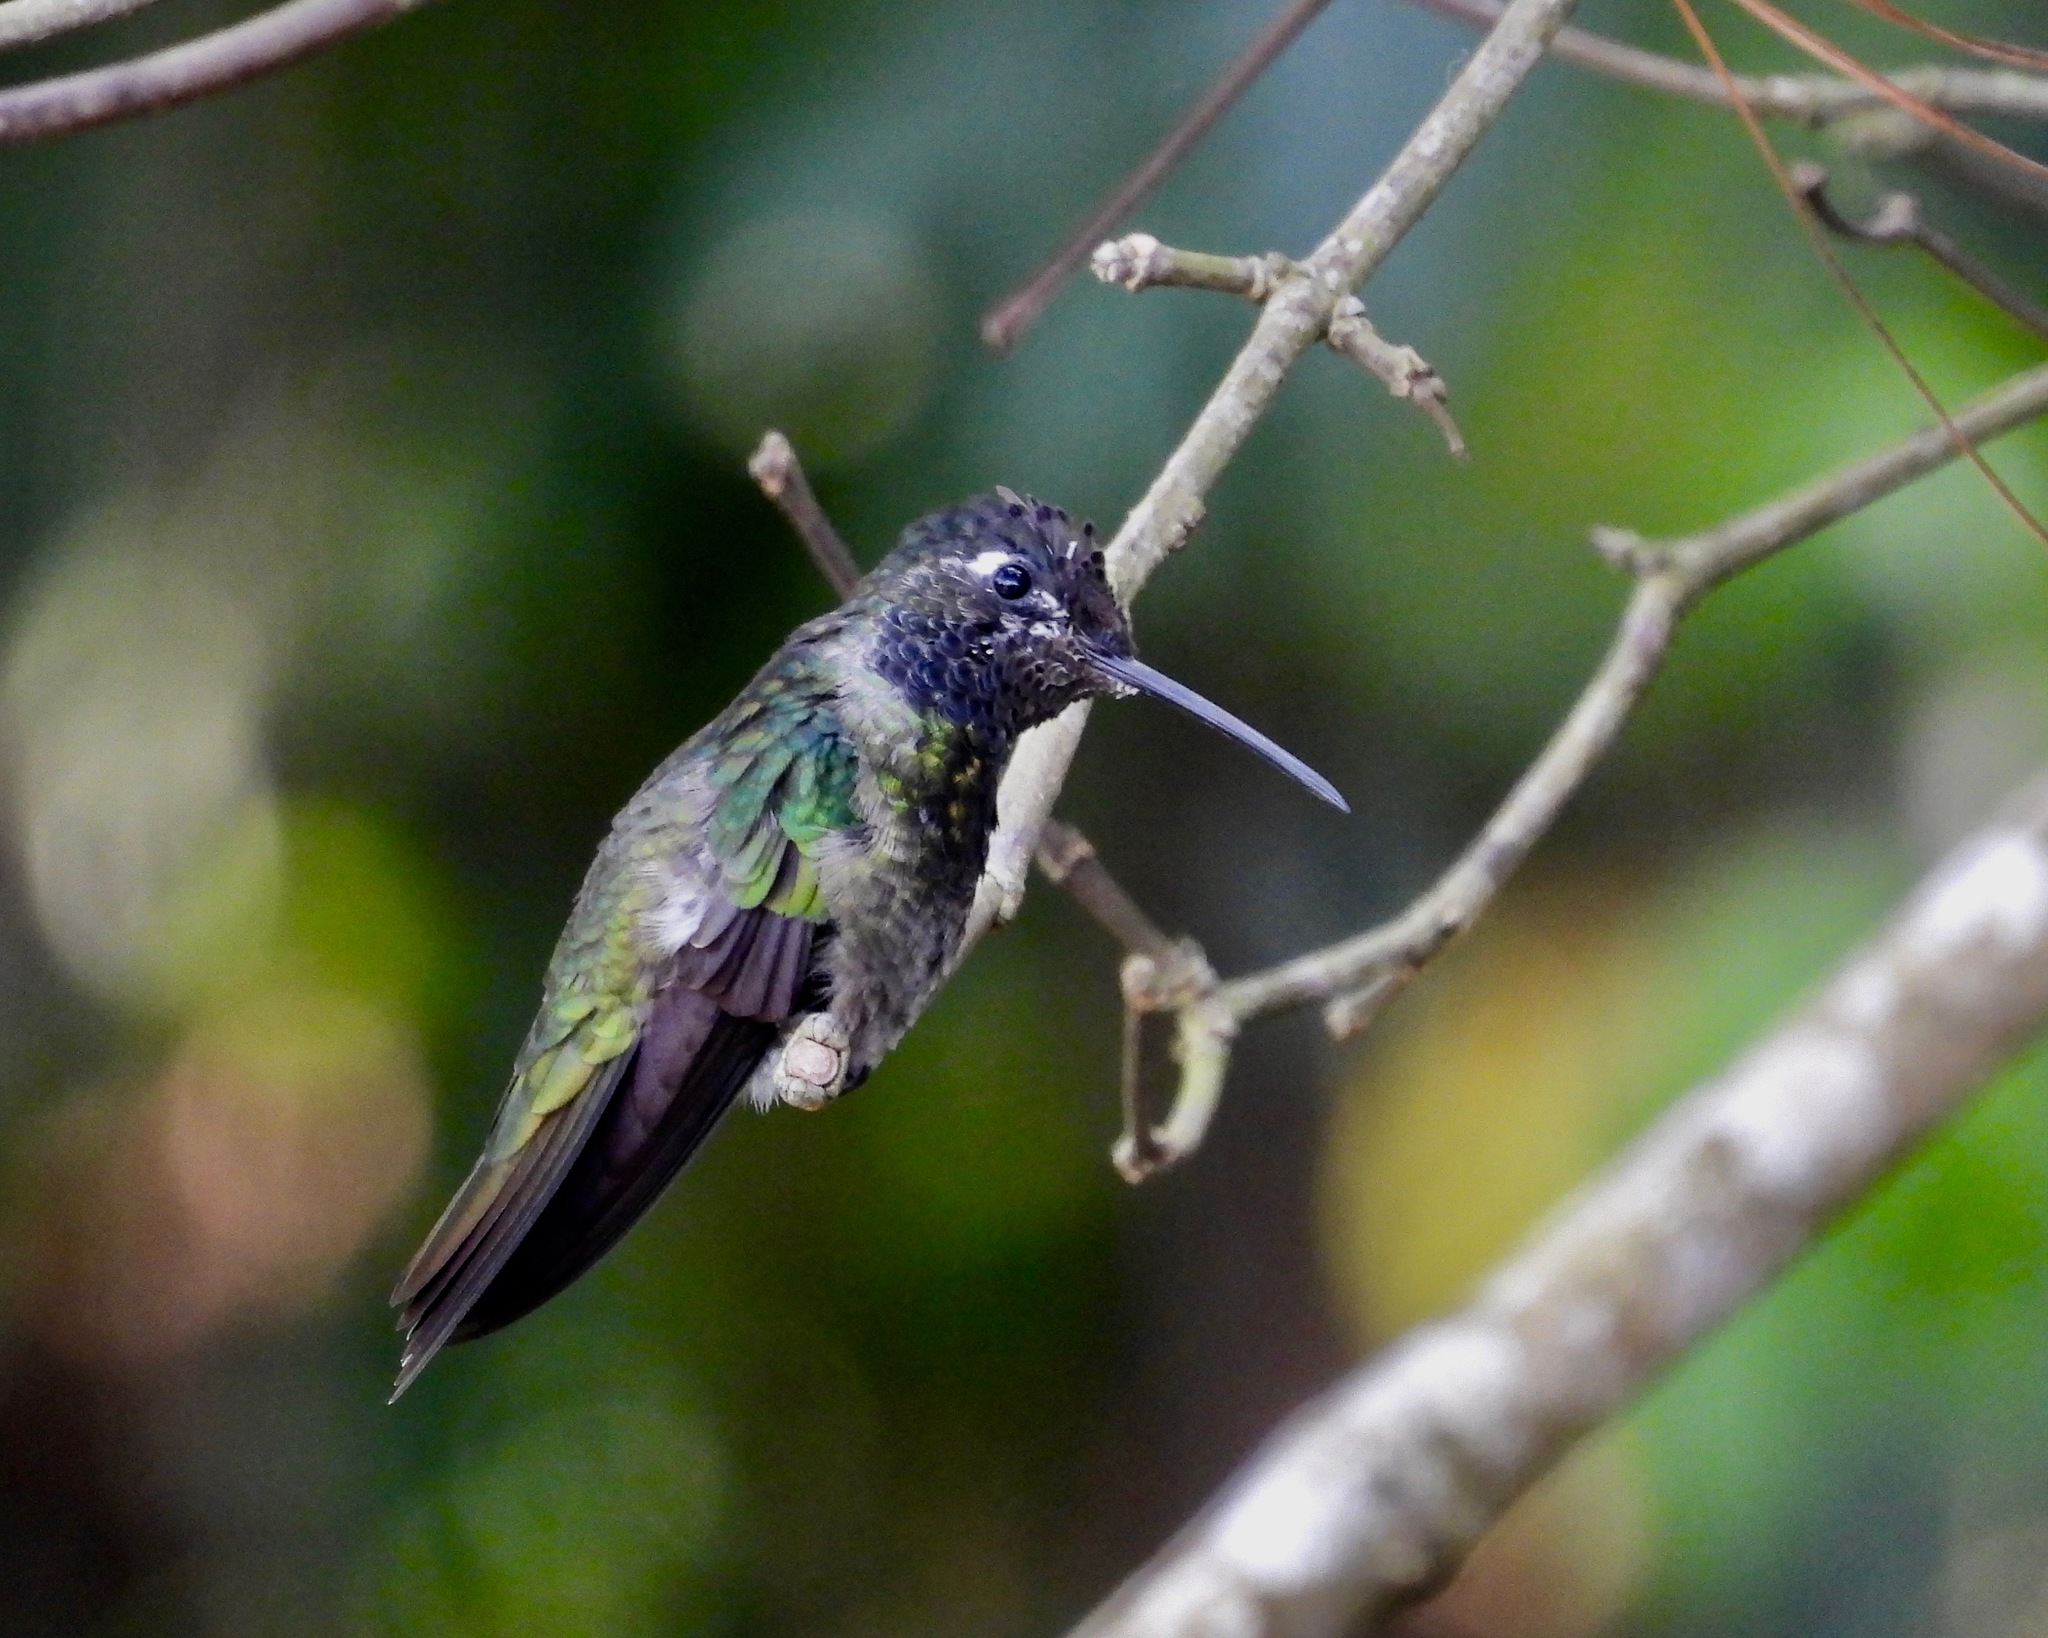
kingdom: Animalia
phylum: Chordata
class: Aves
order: Apodiformes
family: Trochilidae
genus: Eugenes
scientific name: Eugenes fulgens
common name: Magnificent hummingbird
